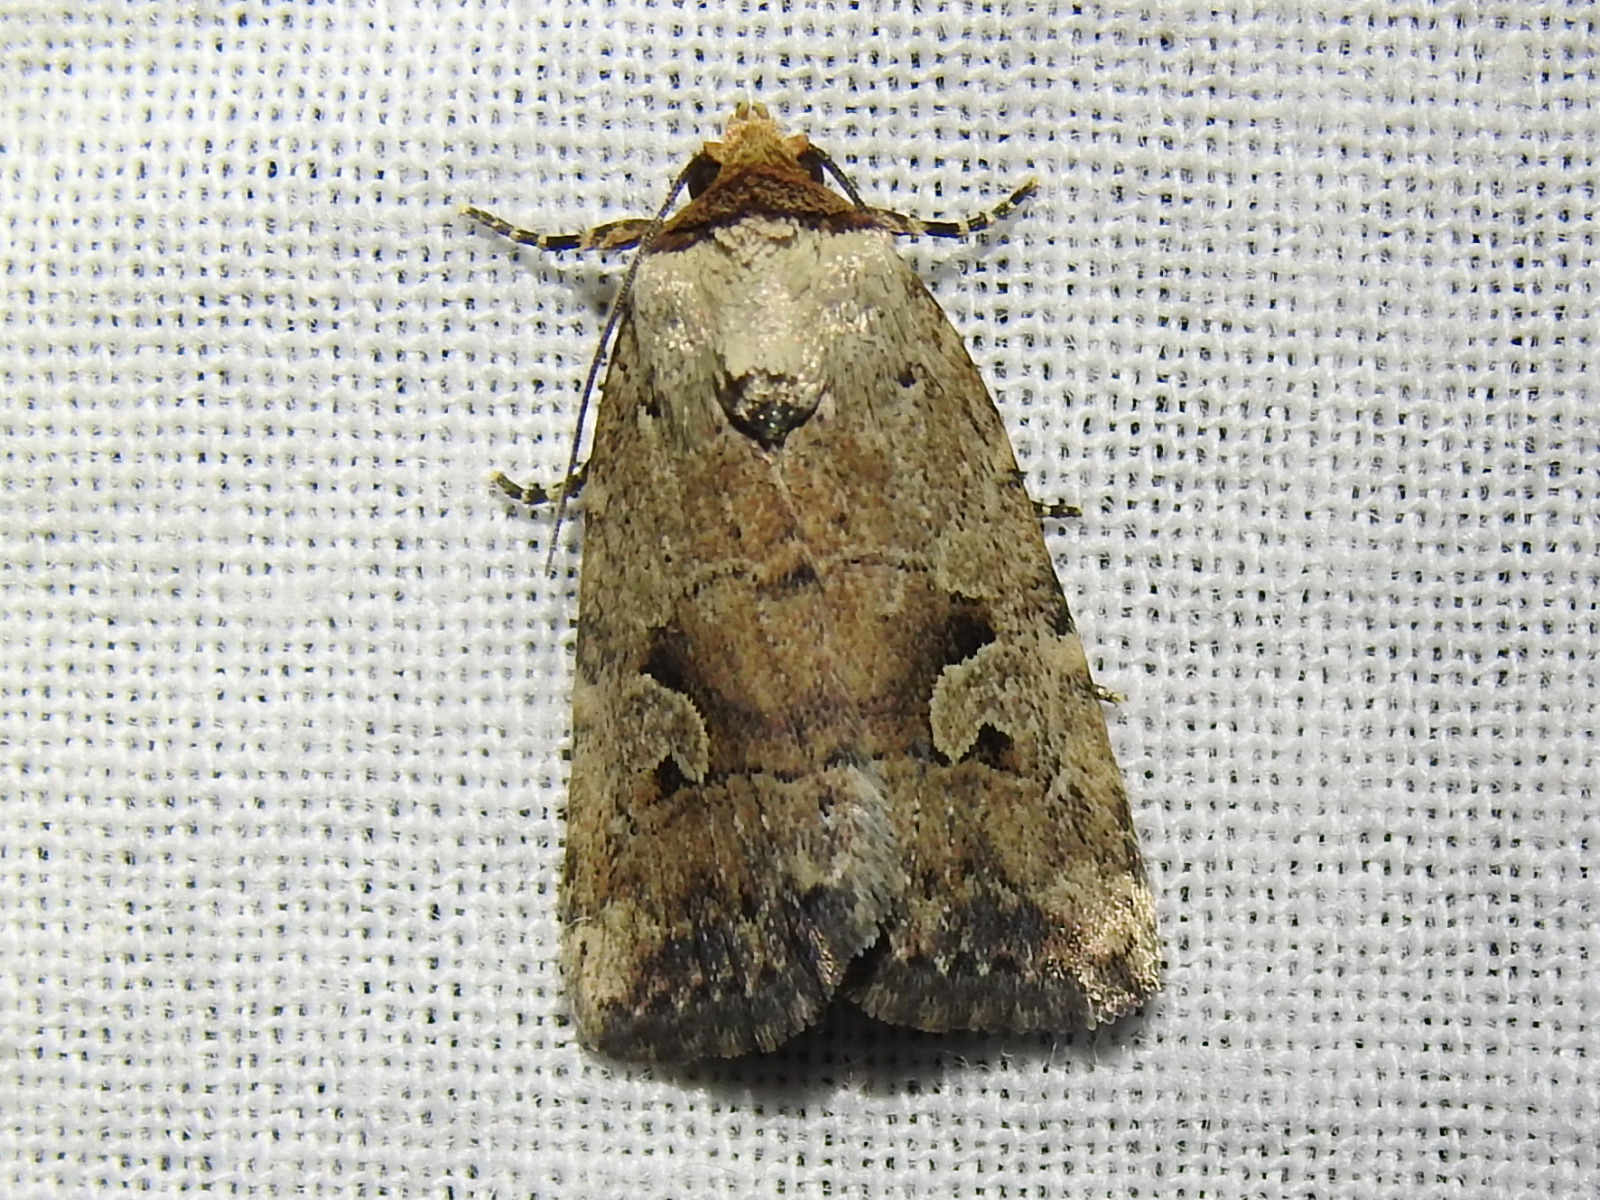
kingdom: Animalia
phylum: Arthropoda
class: Insecta
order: Lepidoptera
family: Noctuidae
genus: Elaphria
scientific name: Elaphria festivoides
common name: Festive midget
